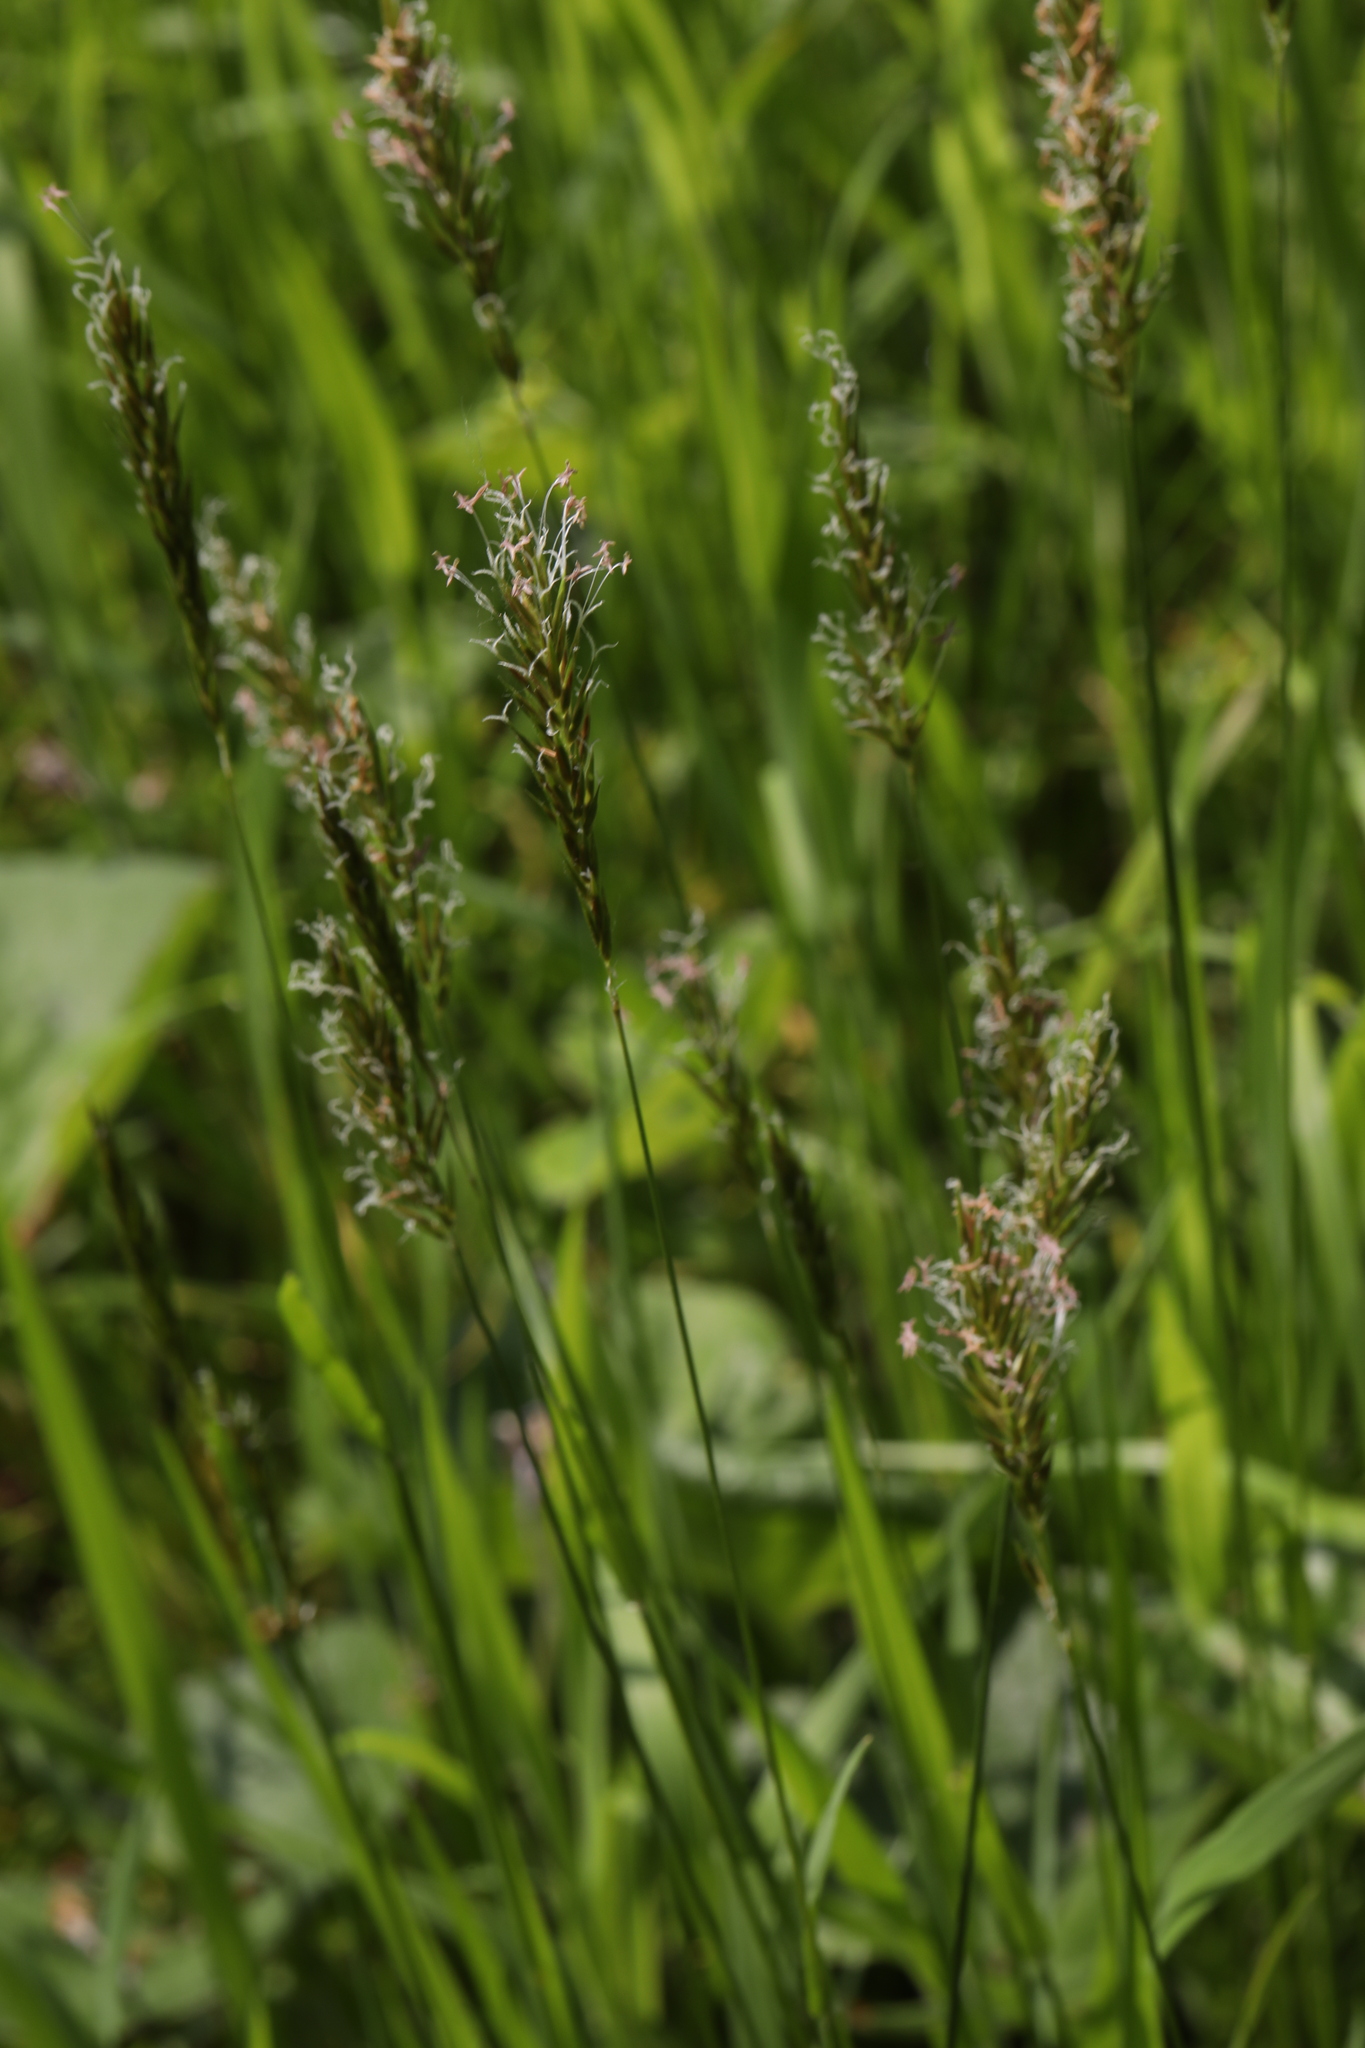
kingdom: Plantae
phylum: Tracheophyta
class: Liliopsida
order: Poales
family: Poaceae
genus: Anthoxanthum
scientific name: Anthoxanthum odoratum
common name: Sweet vernalgrass
